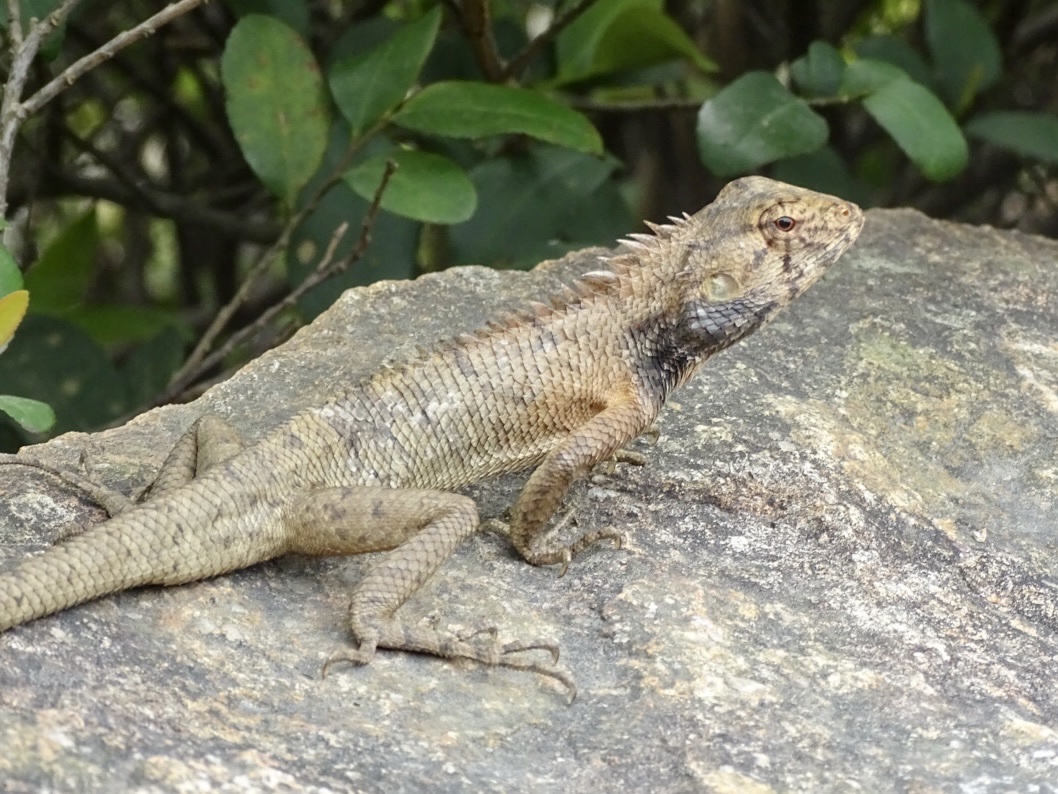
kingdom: Animalia
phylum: Chordata
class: Squamata
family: Agamidae
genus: Calotes
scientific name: Calotes versicolor
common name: Oriental garden lizard
